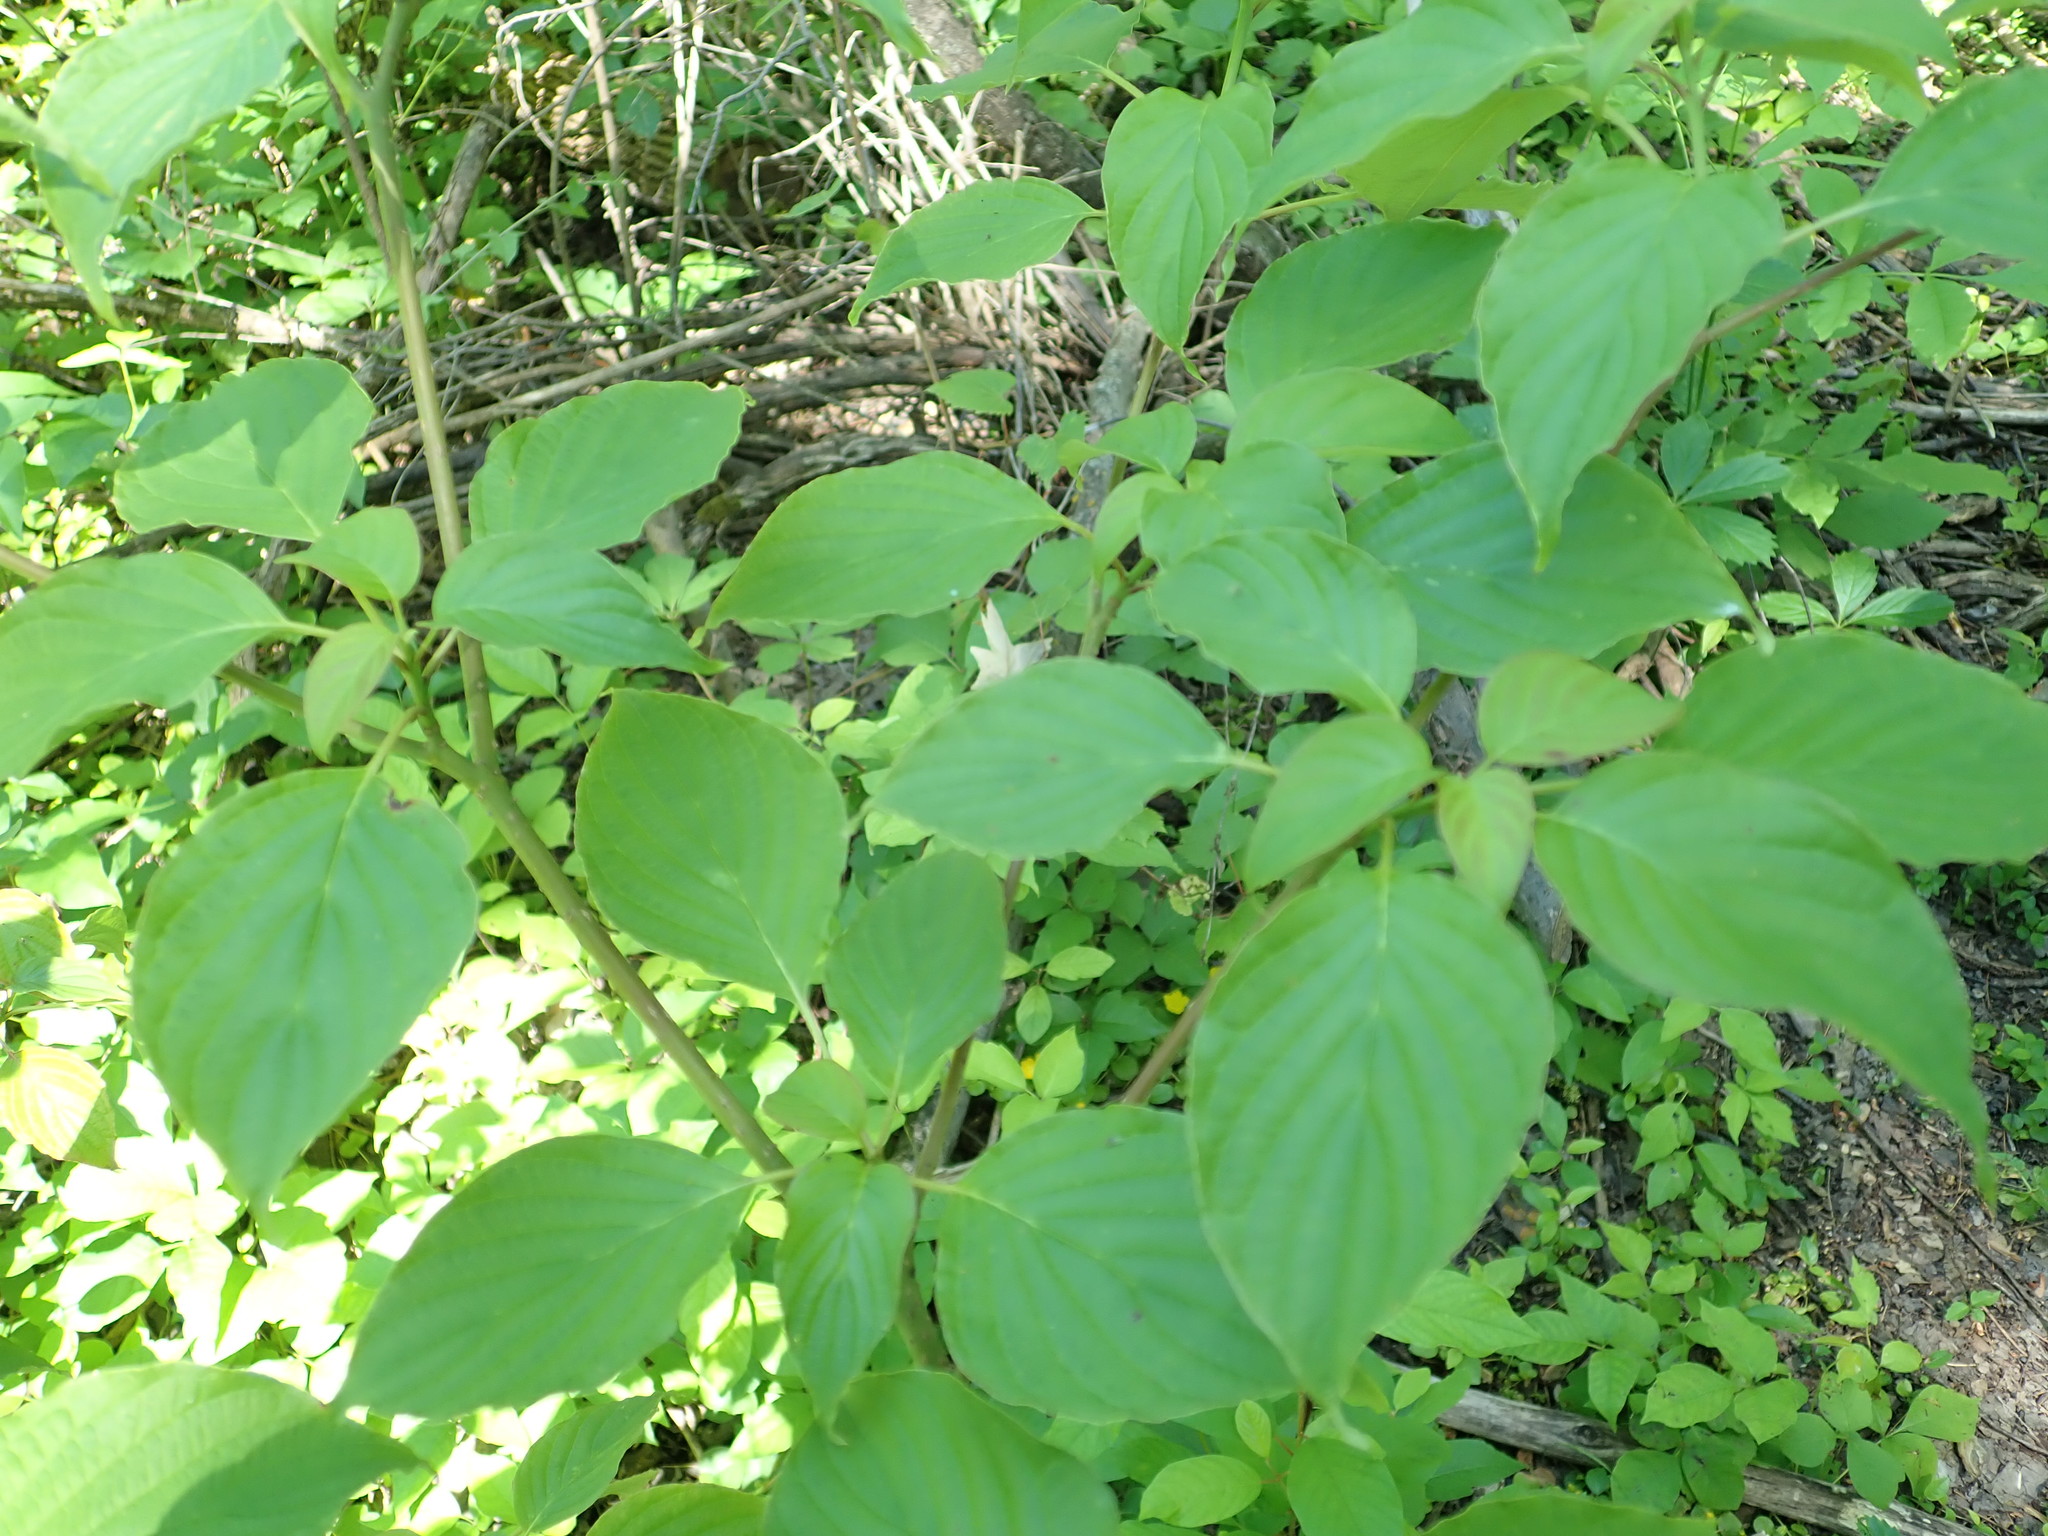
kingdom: Plantae
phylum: Tracheophyta
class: Magnoliopsida
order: Cornales
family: Cornaceae
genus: Cornus
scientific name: Cornus alternifolia
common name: Pagoda dogwood
